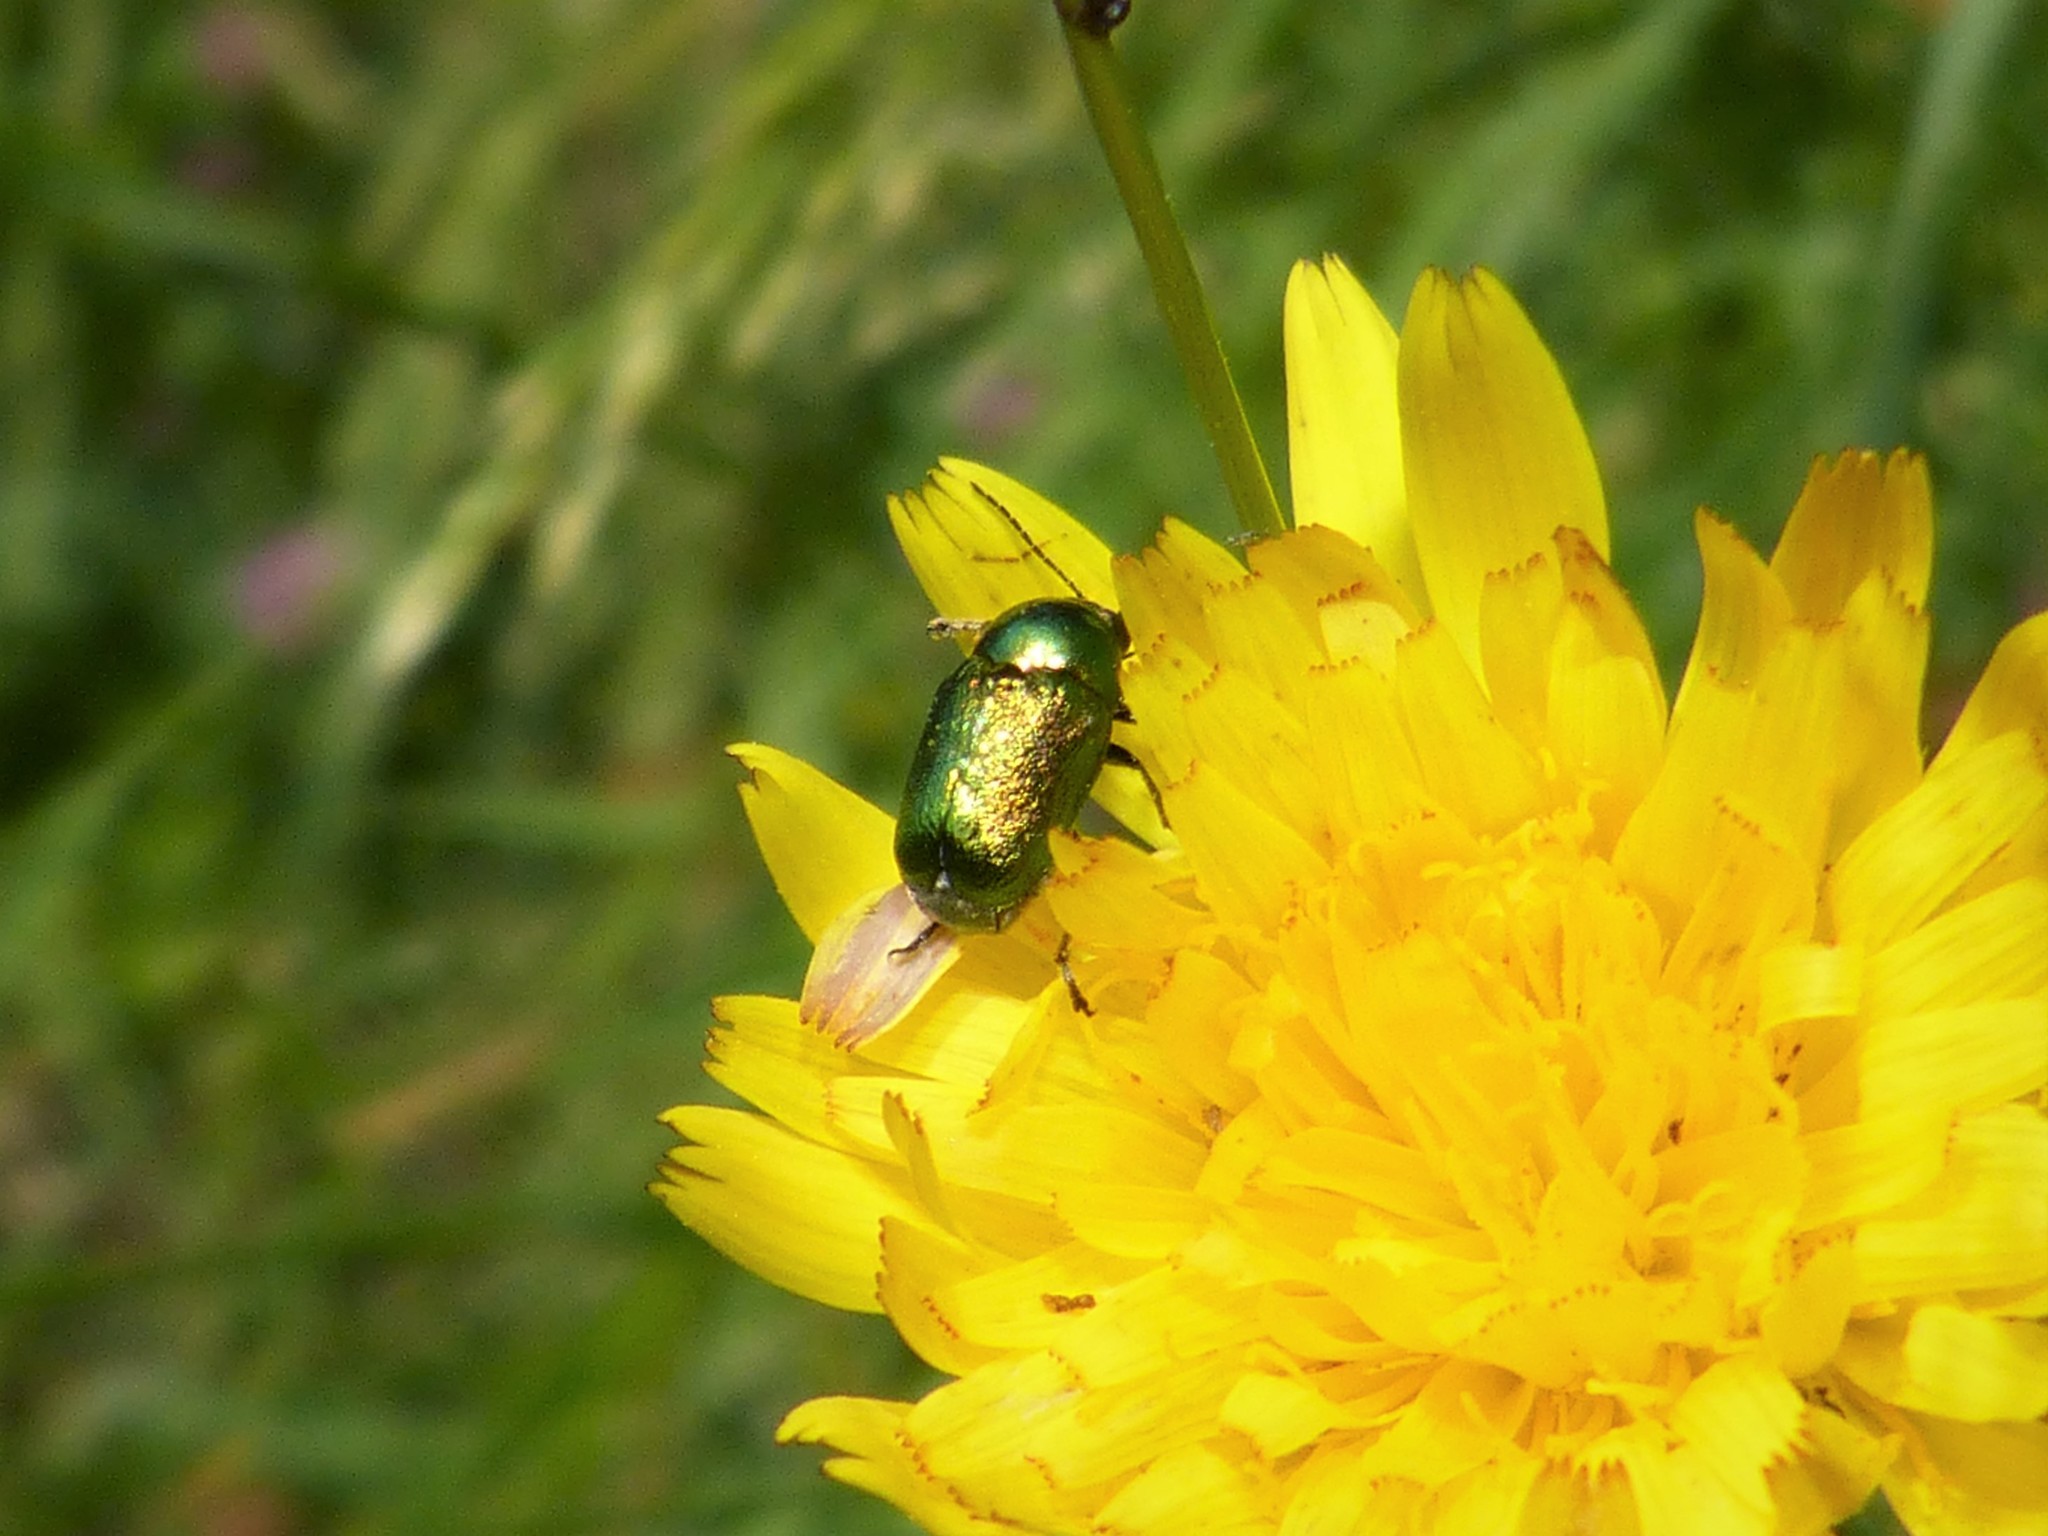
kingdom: Animalia
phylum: Arthropoda
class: Insecta
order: Coleoptera
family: Chrysomelidae
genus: Cryptocephalus
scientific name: Cryptocephalus
